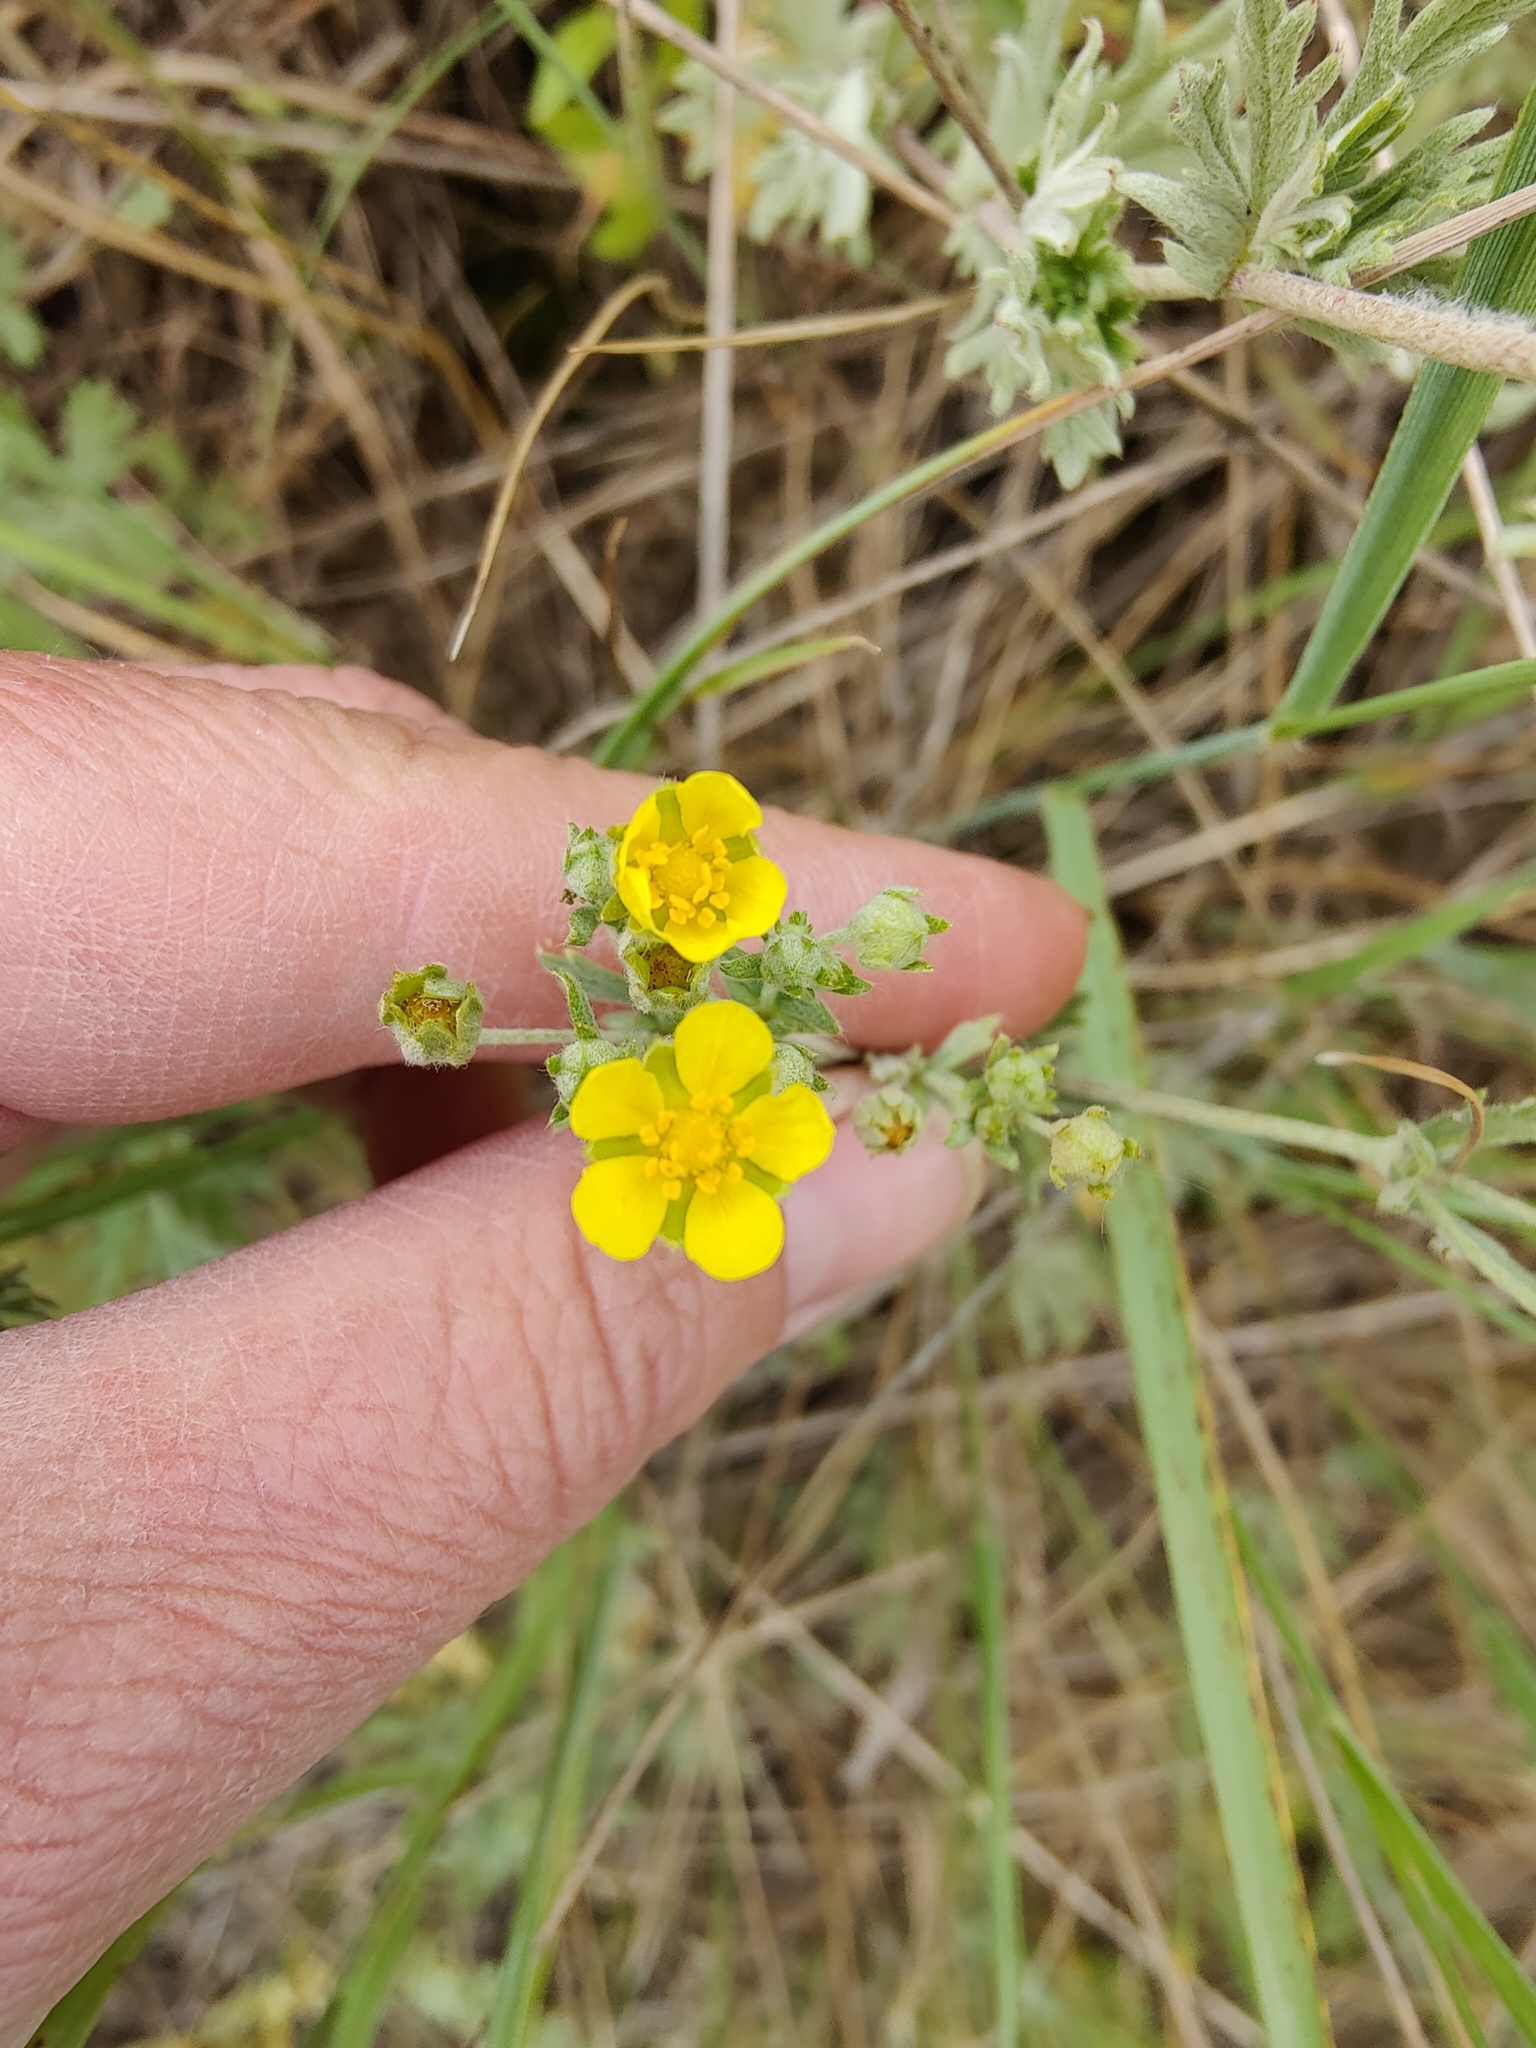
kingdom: Plantae
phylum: Tracheophyta
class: Magnoliopsida
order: Rosales
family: Rosaceae
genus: Potentilla
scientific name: Potentilla argentea
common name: Hoary cinquefoil
